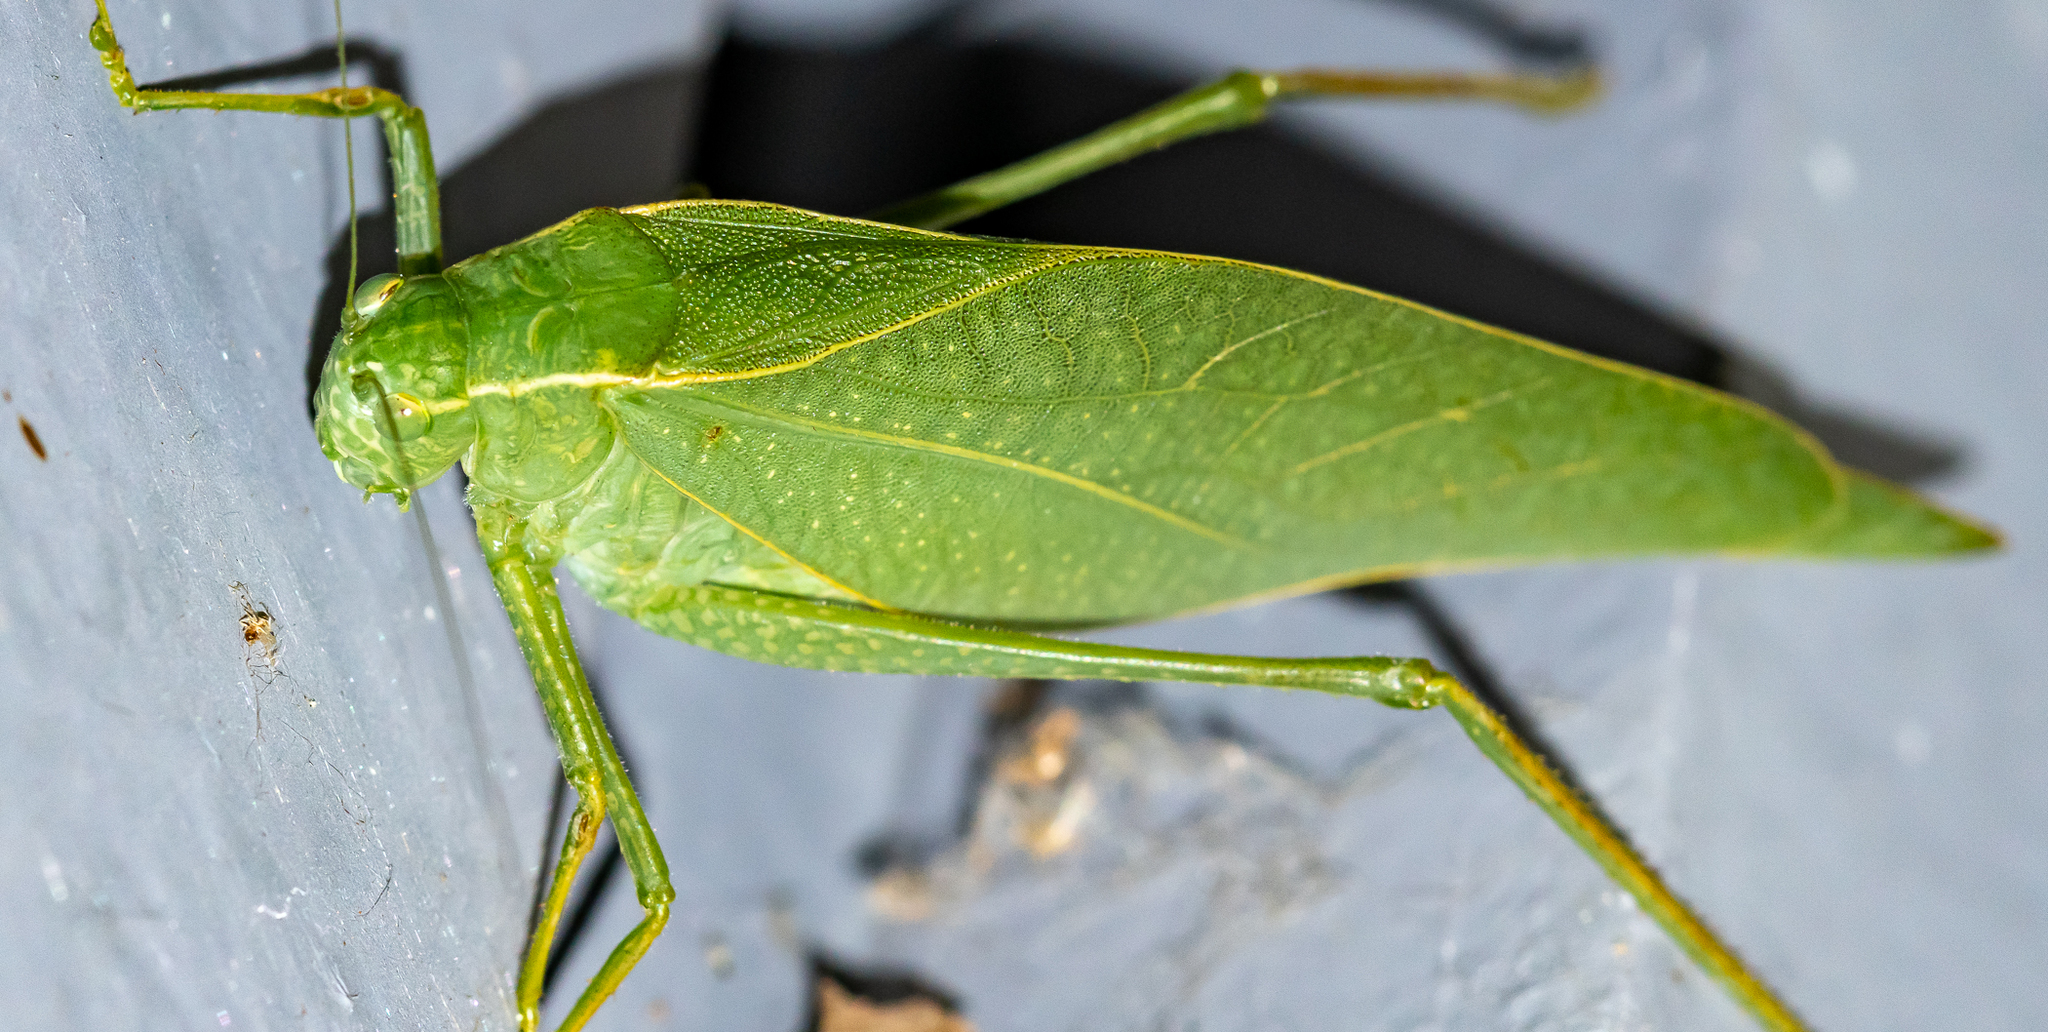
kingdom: Animalia
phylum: Arthropoda
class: Insecta
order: Orthoptera
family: Tettigoniidae
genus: Microcentrum
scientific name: Microcentrum rhombifolium
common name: Broad-winged katydid
